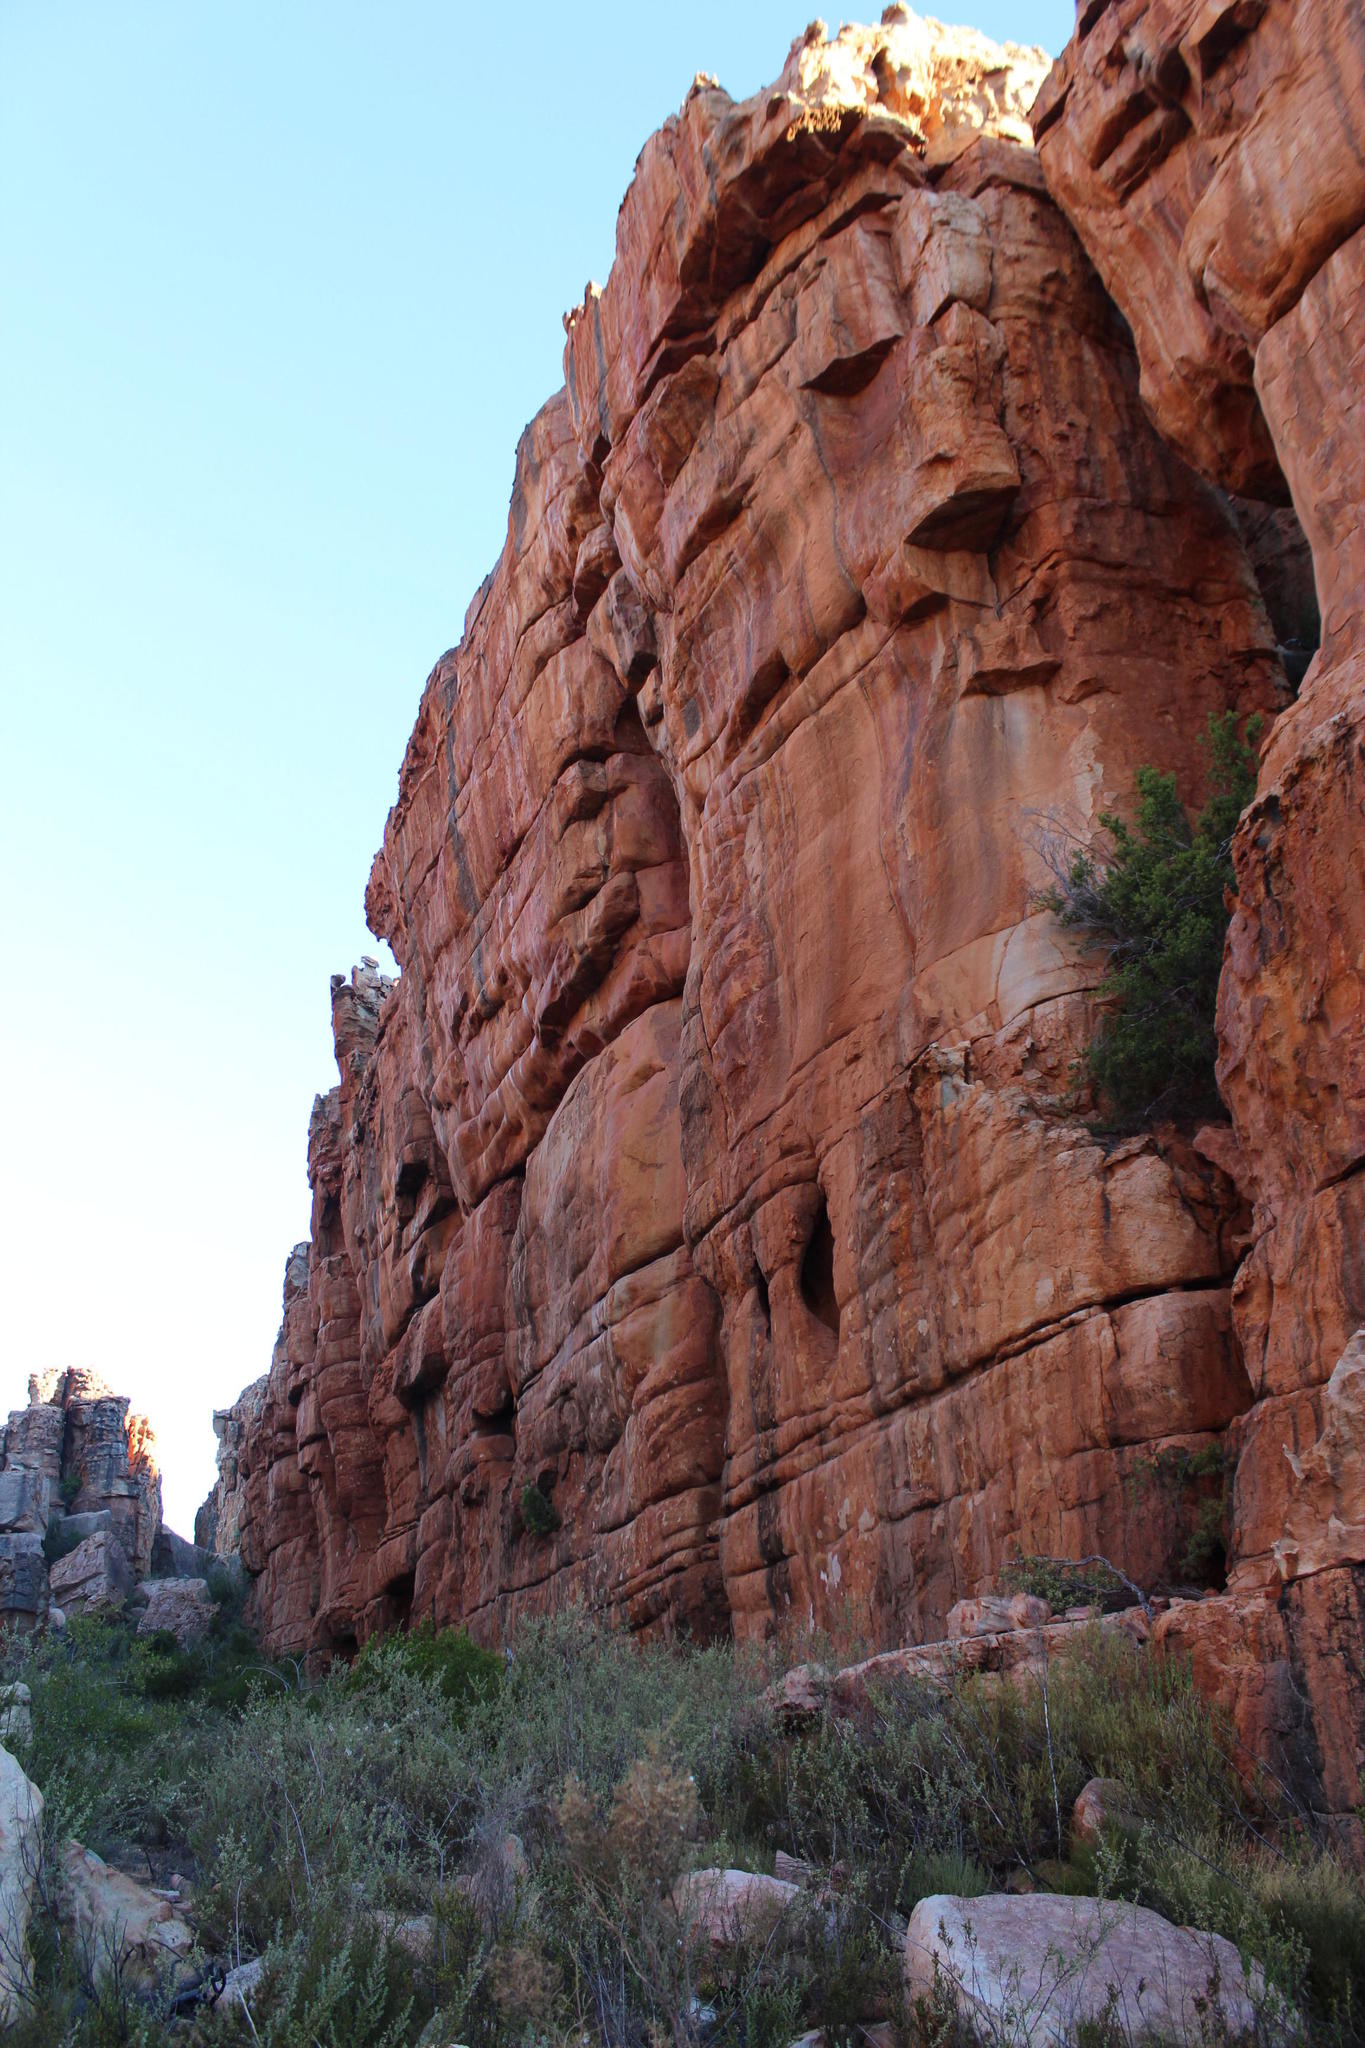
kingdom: Plantae
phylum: Tracheophyta
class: Magnoliopsida
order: Rosales
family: Rosaceae
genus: Cliffortia
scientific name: Cliffortia ruscifolia
